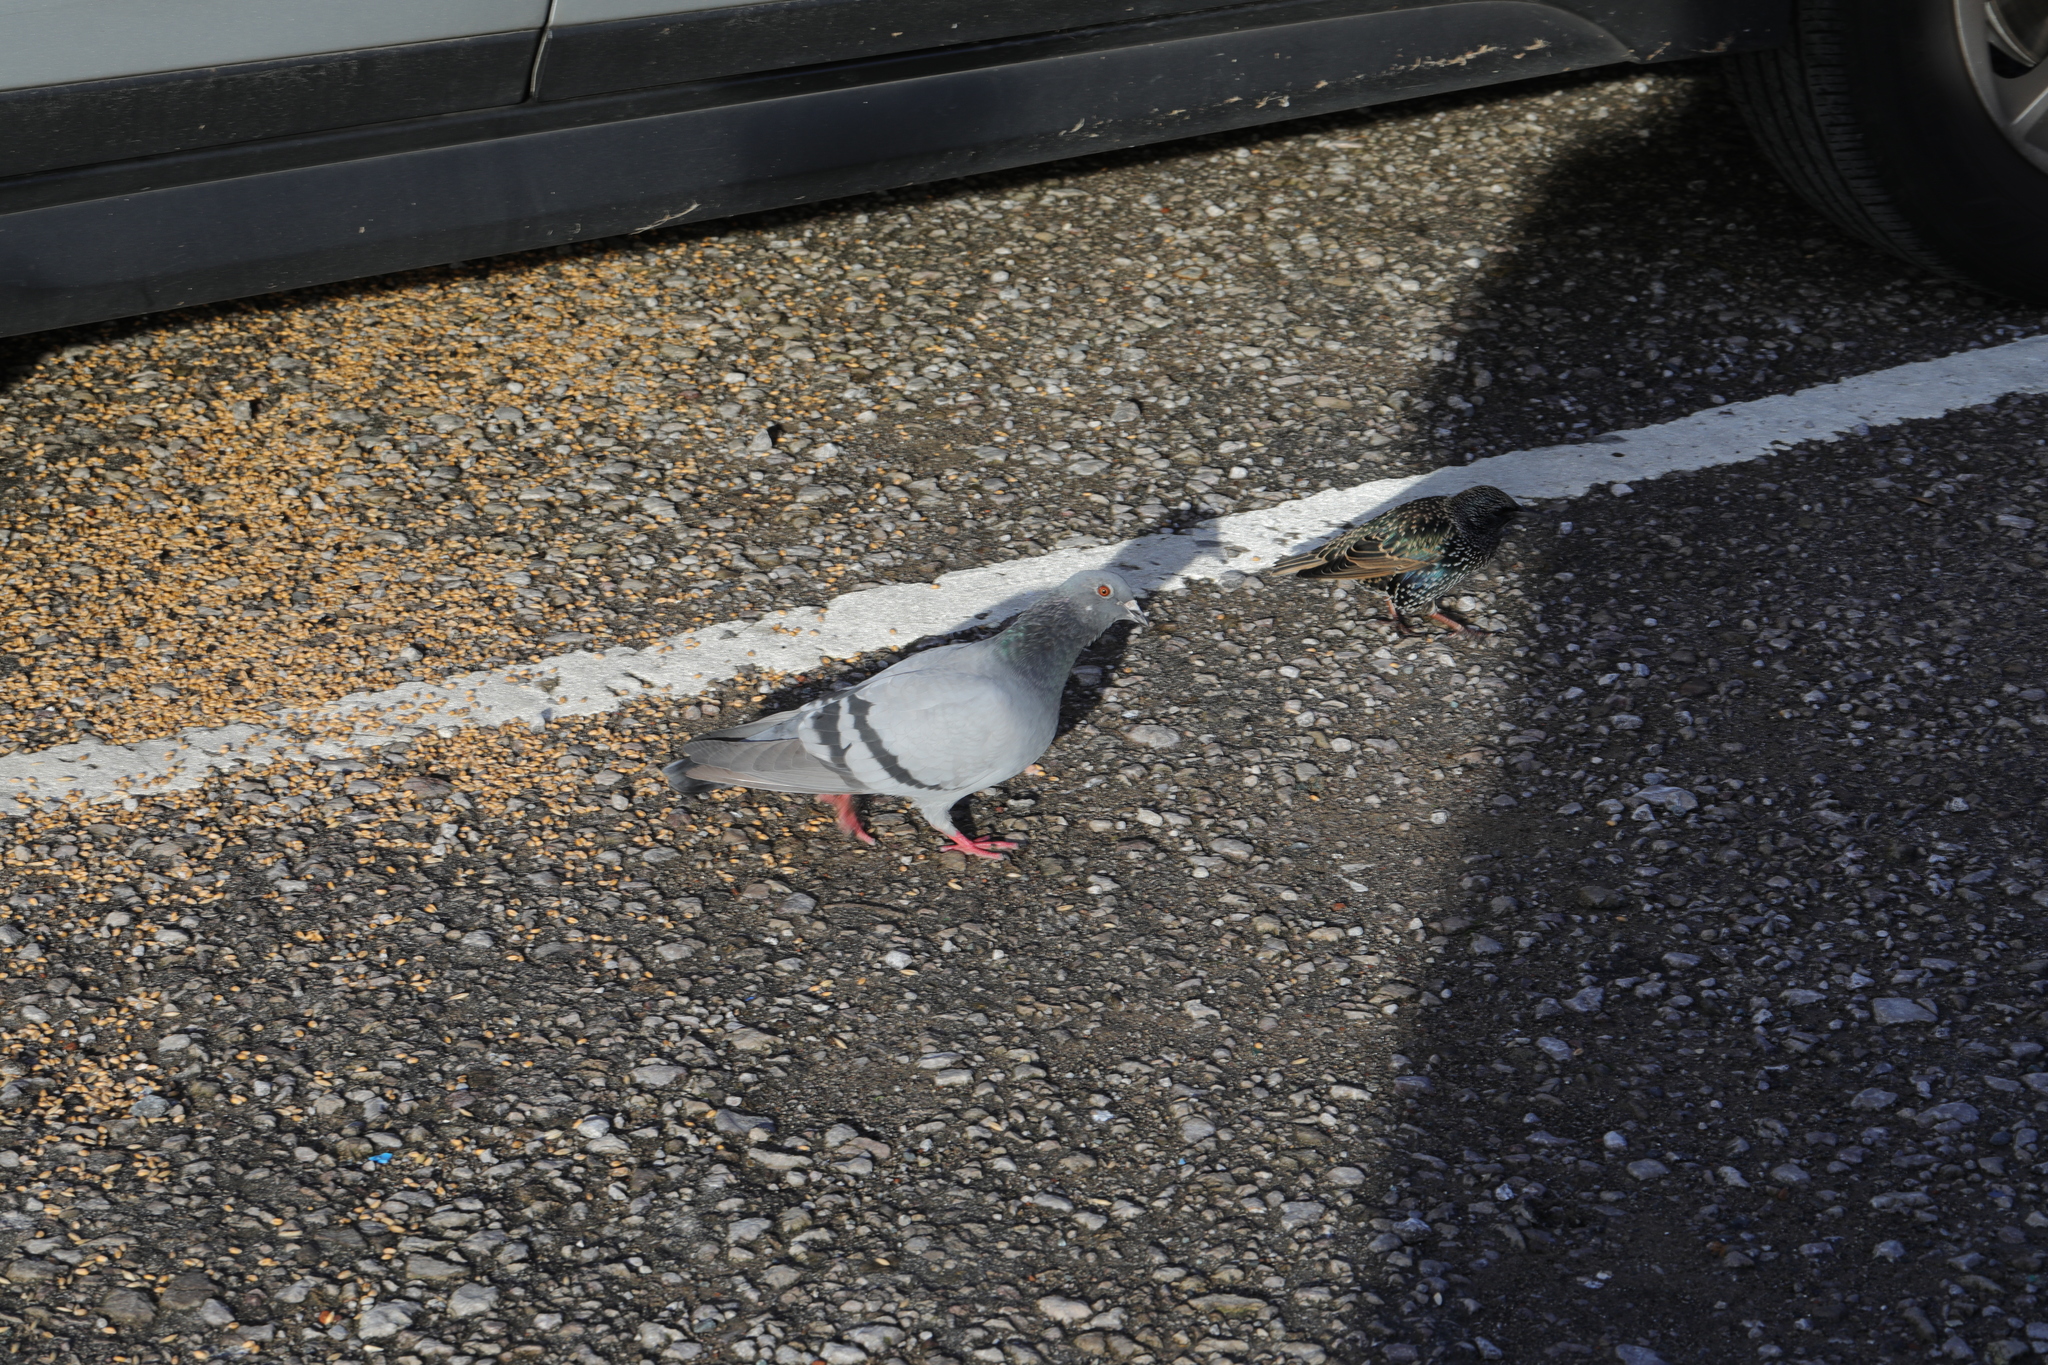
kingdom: Animalia
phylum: Chordata
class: Aves
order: Columbiformes
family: Columbidae
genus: Columba
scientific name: Columba livia
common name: Rock pigeon
